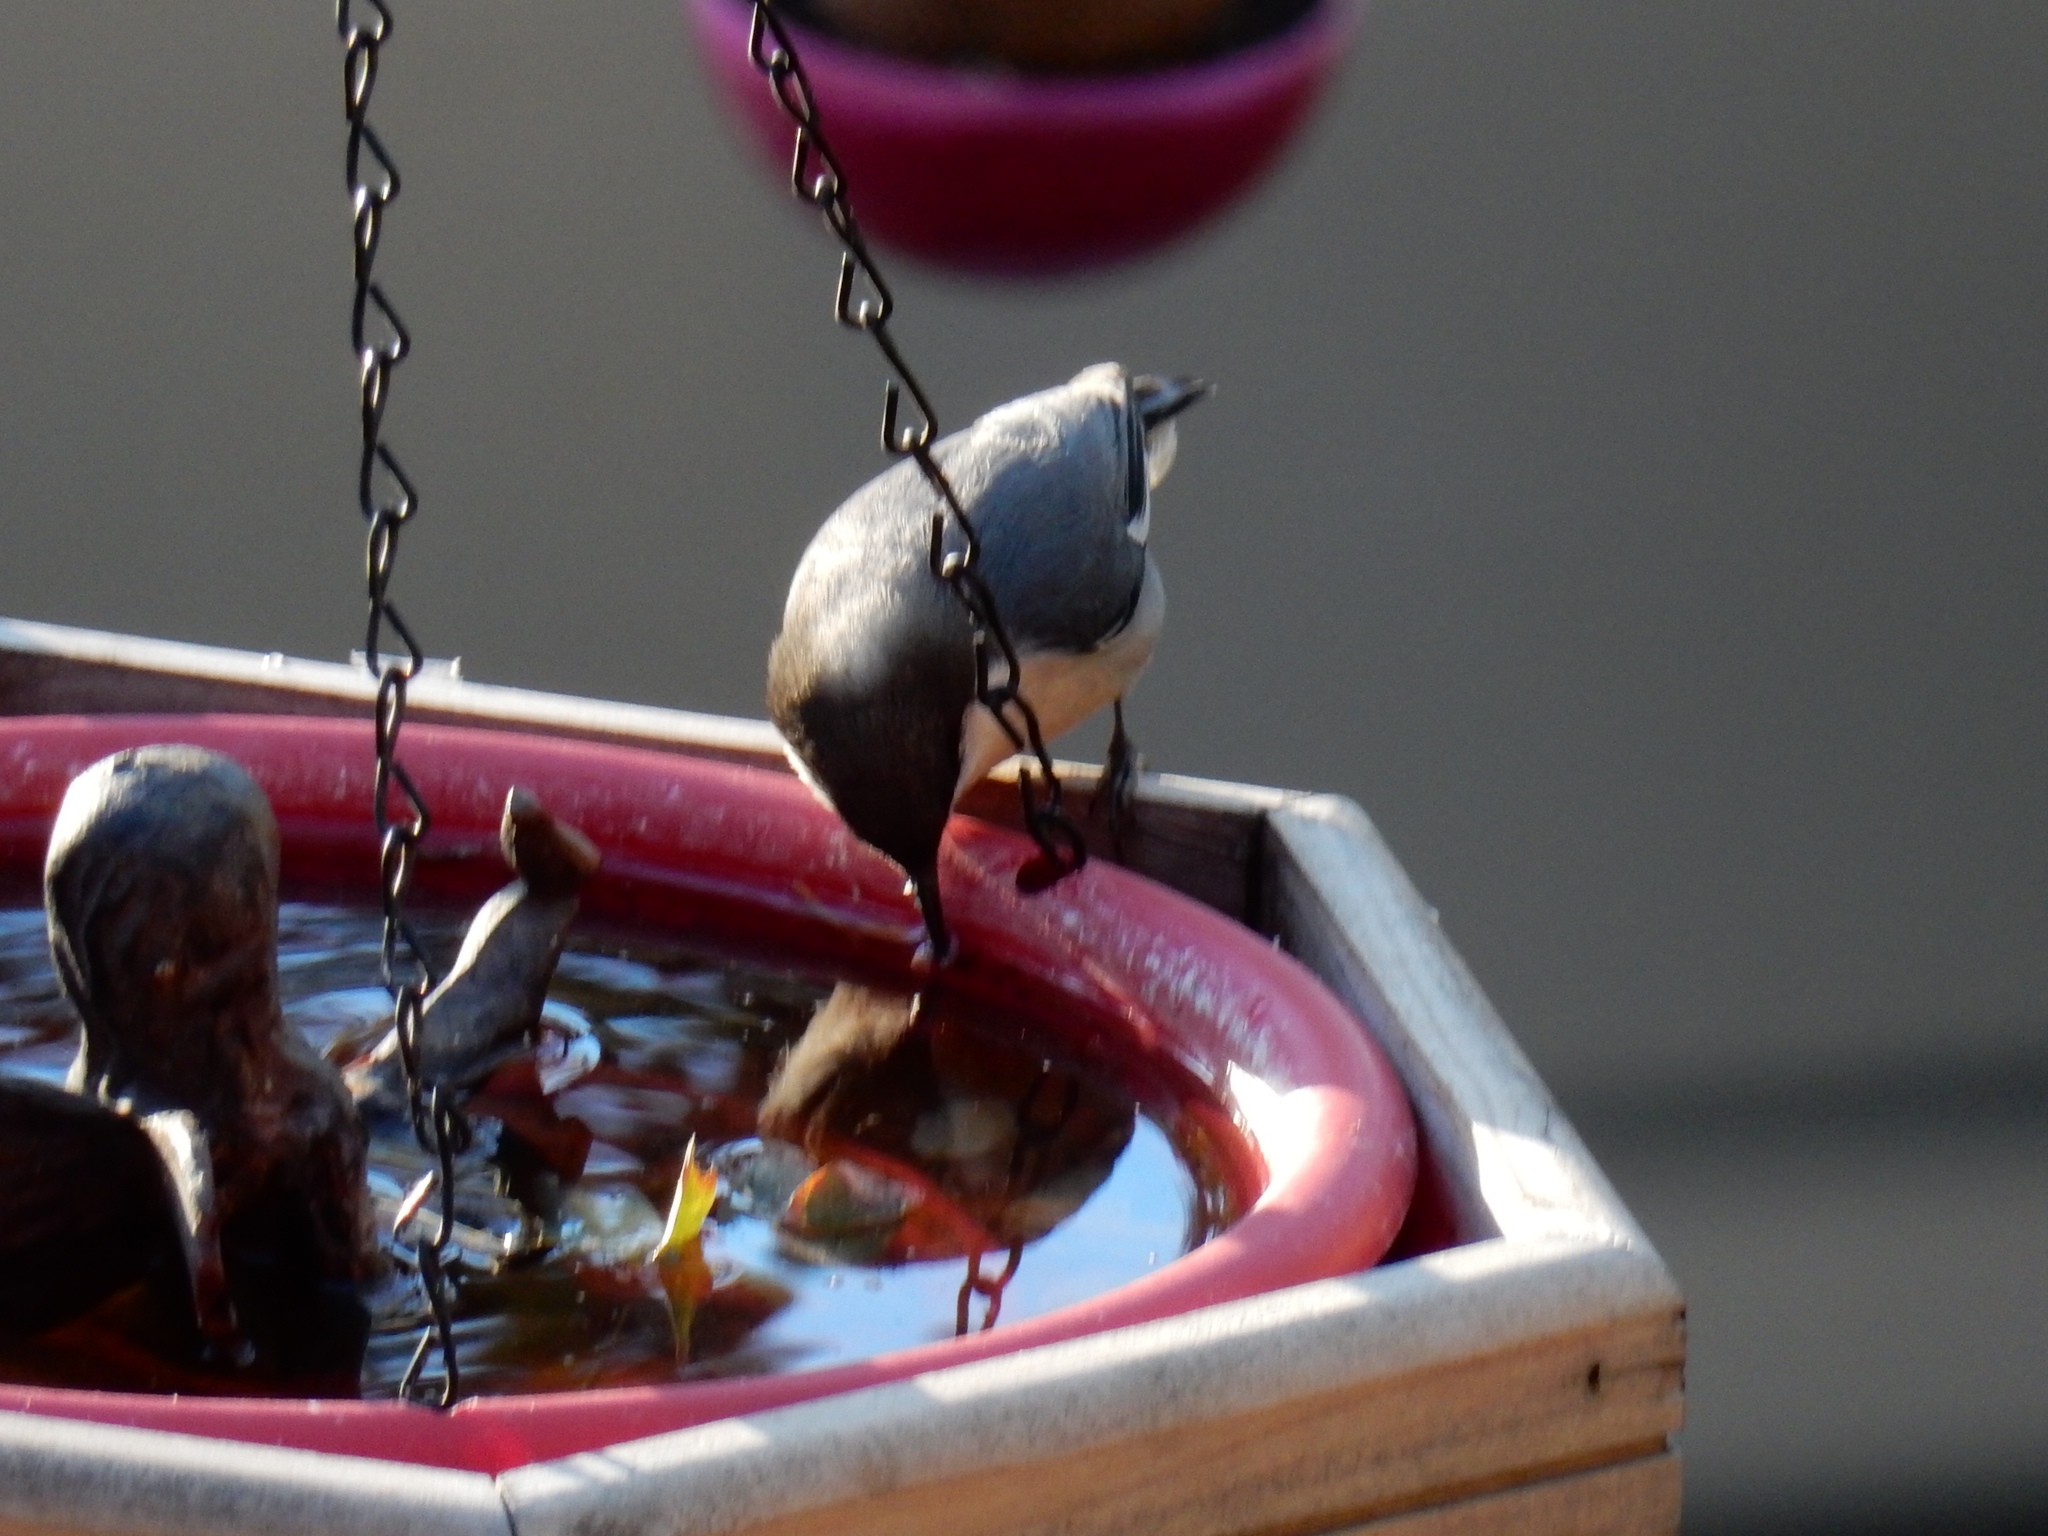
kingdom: Animalia
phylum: Chordata
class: Aves
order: Passeriformes
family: Sittidae
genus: Sitta
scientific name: Sitta pygmaea
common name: Pygmy nuthatch
